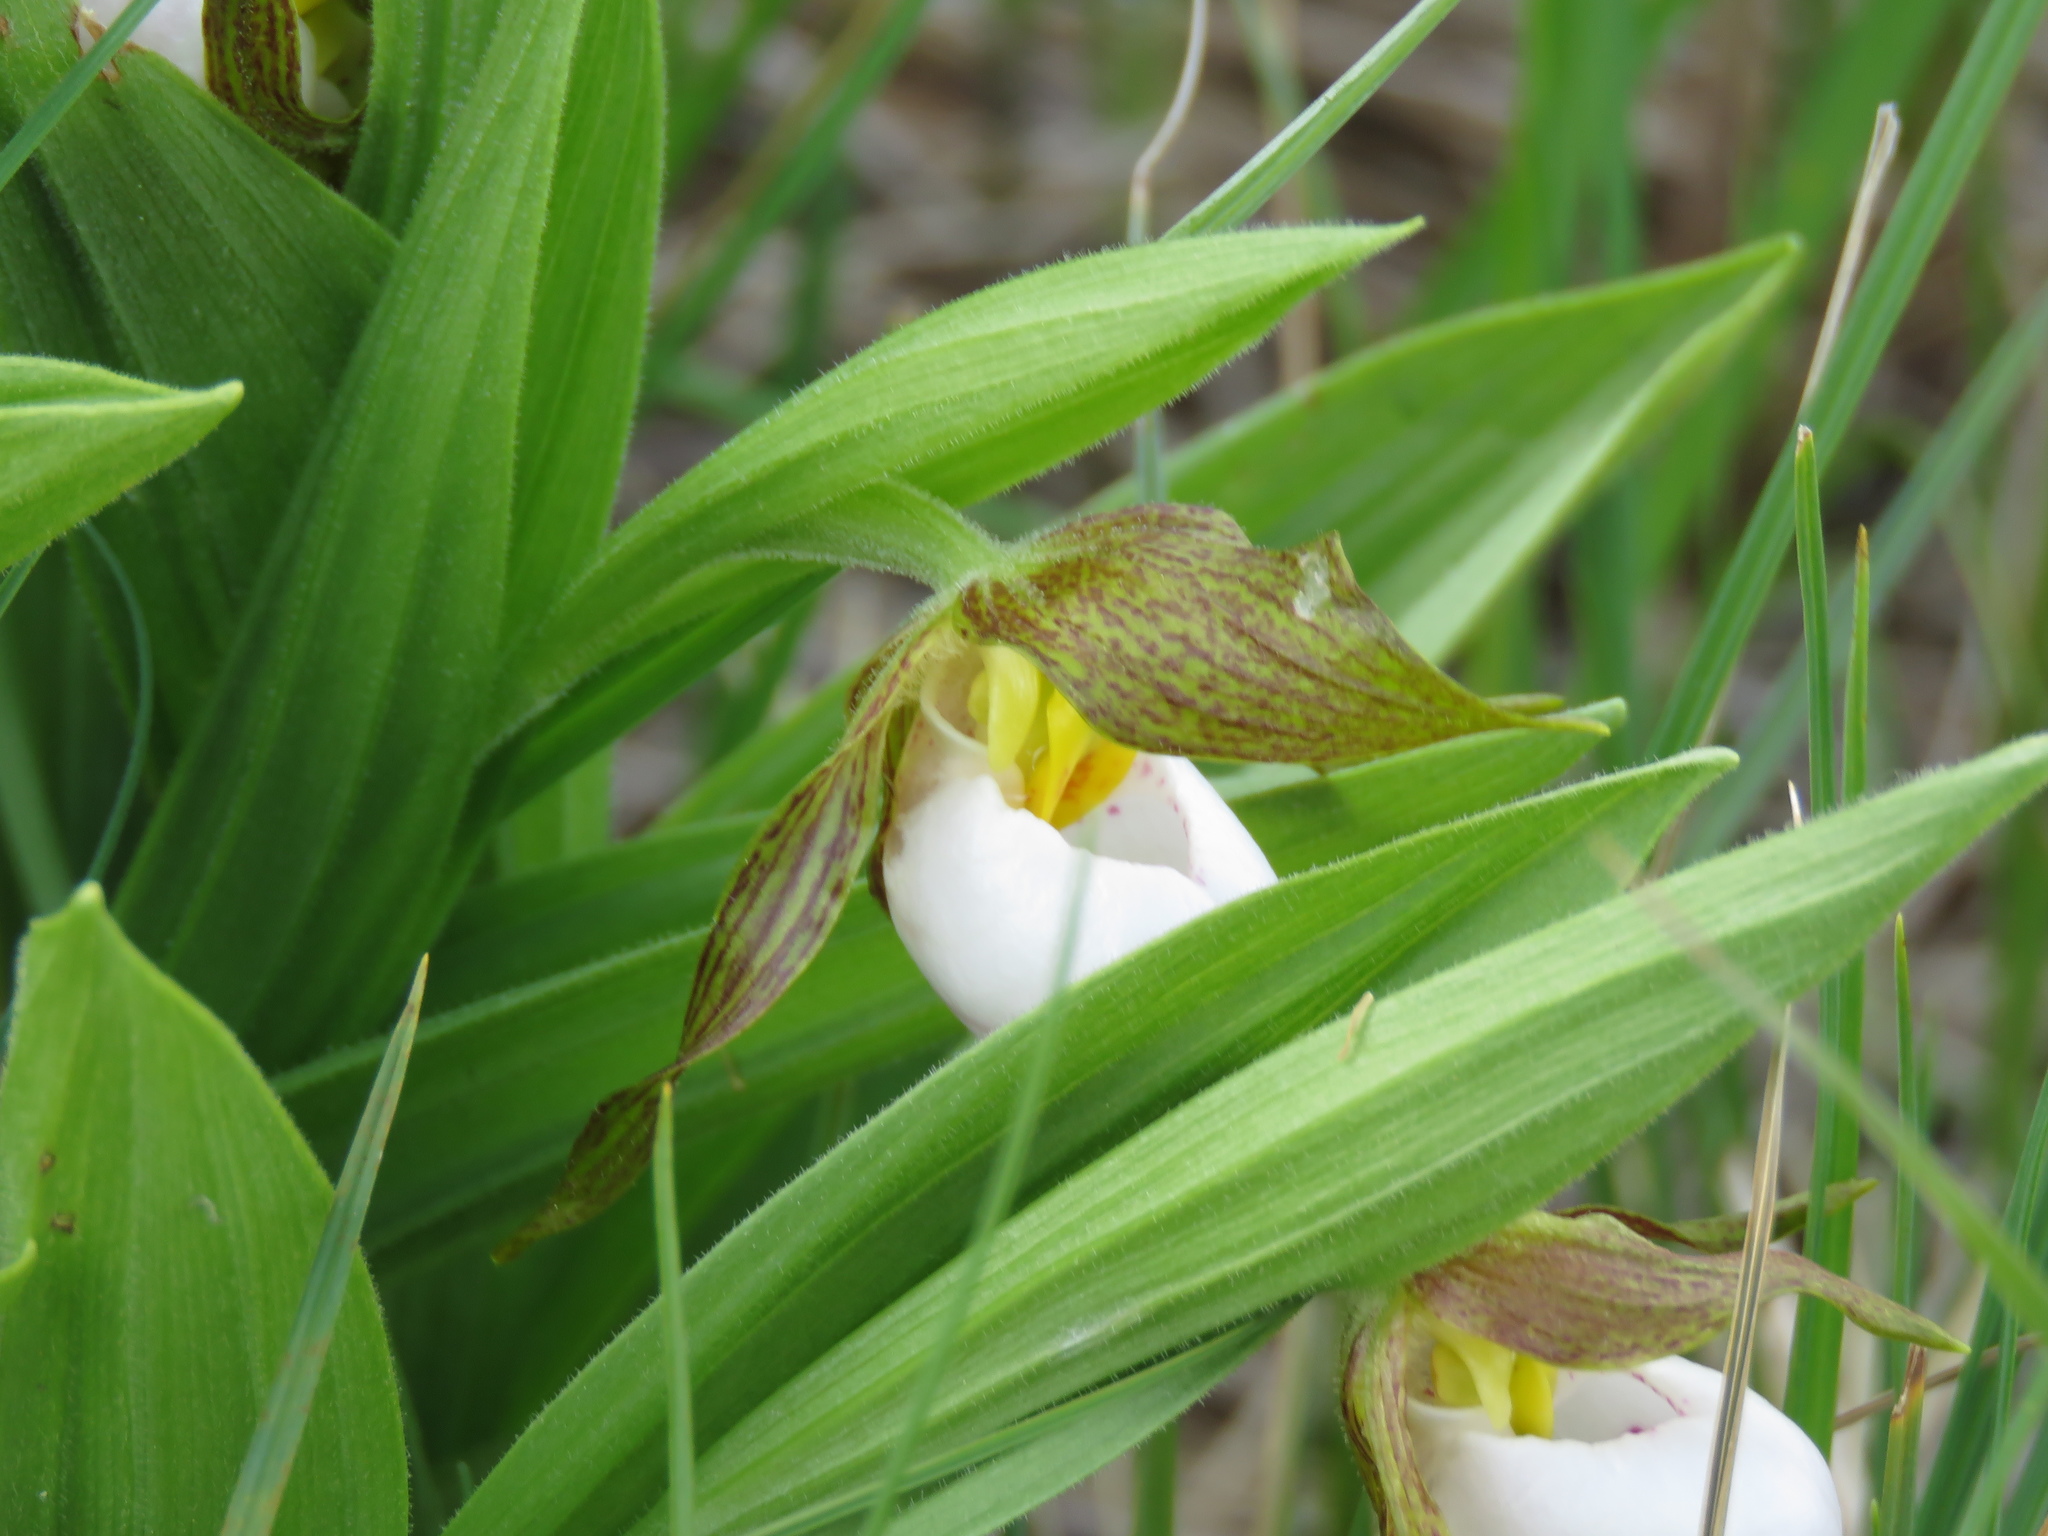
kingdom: Plantae
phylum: Tracheophyta
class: Liliopsida
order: Asparagales
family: Orchidaceae
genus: Cypripedium
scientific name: Cypripedium candidum
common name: White lady's-slipper
